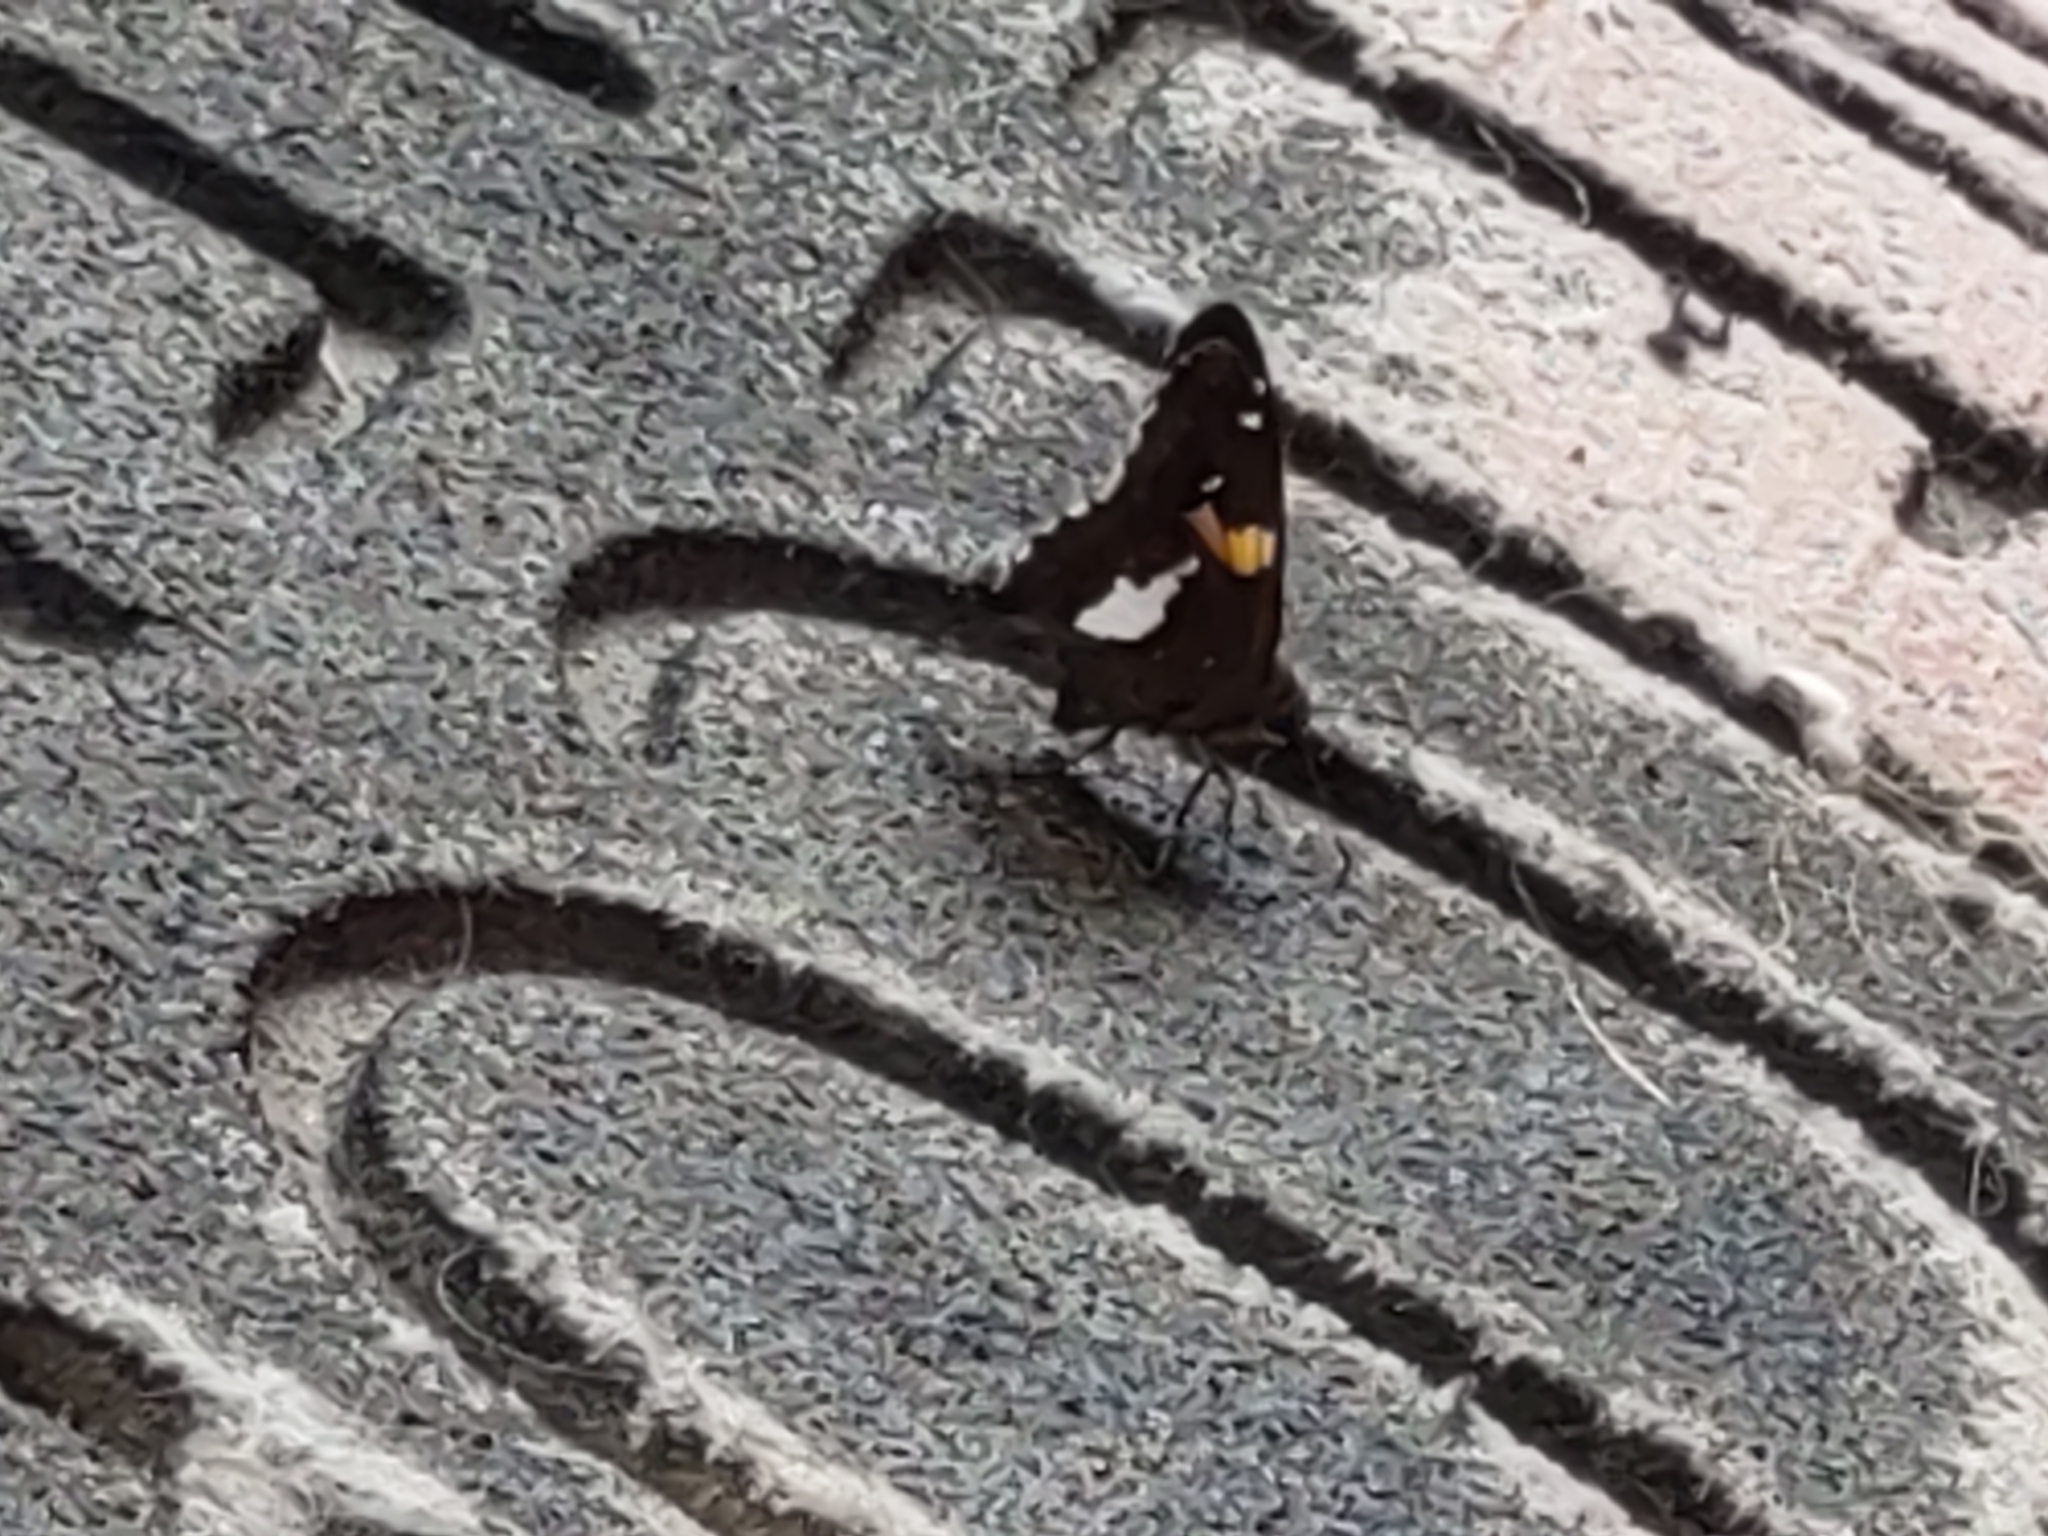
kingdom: Animalia
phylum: Arthropoda
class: Insecta
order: Lepidoptera
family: Hesperiidae
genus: Epargyreus
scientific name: Epargyreus clarus
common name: Silver-spotted skipper
